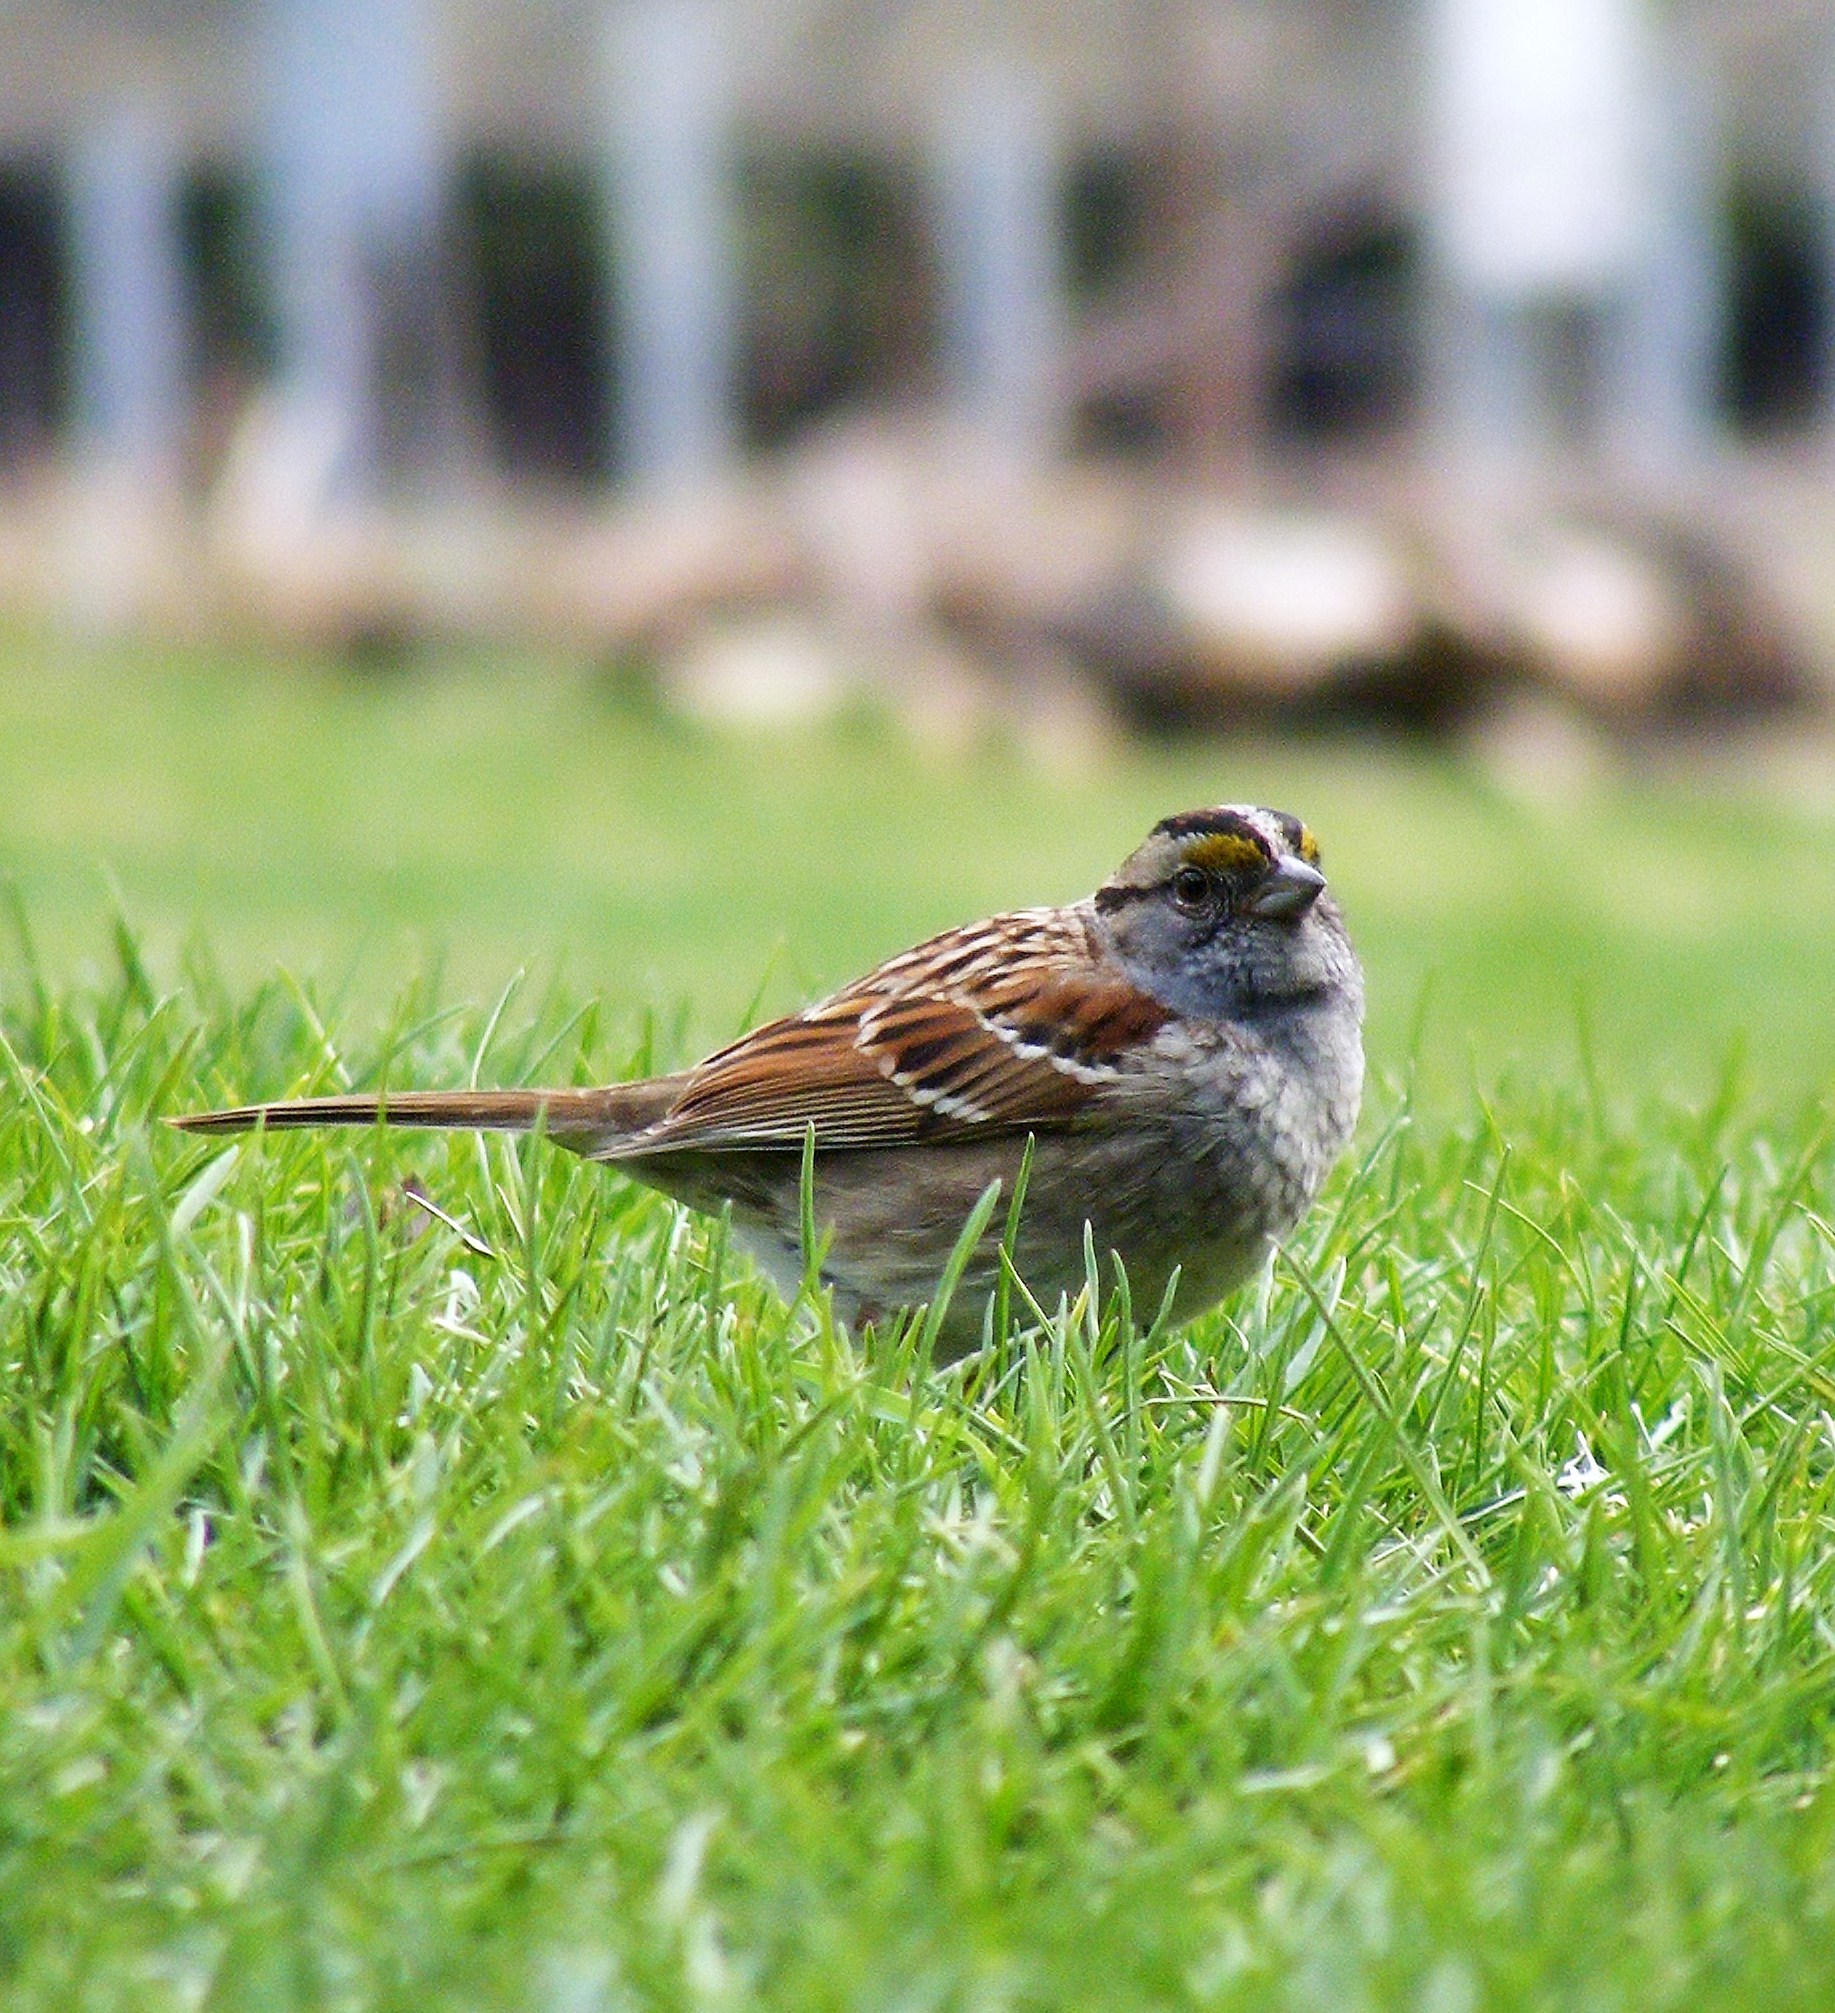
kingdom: Animalia
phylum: Chordata
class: Aves
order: Passeriformes
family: Passerellidae
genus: Zonotrichia
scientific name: Zonotrichia albicollis
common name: White-throated sparrow
